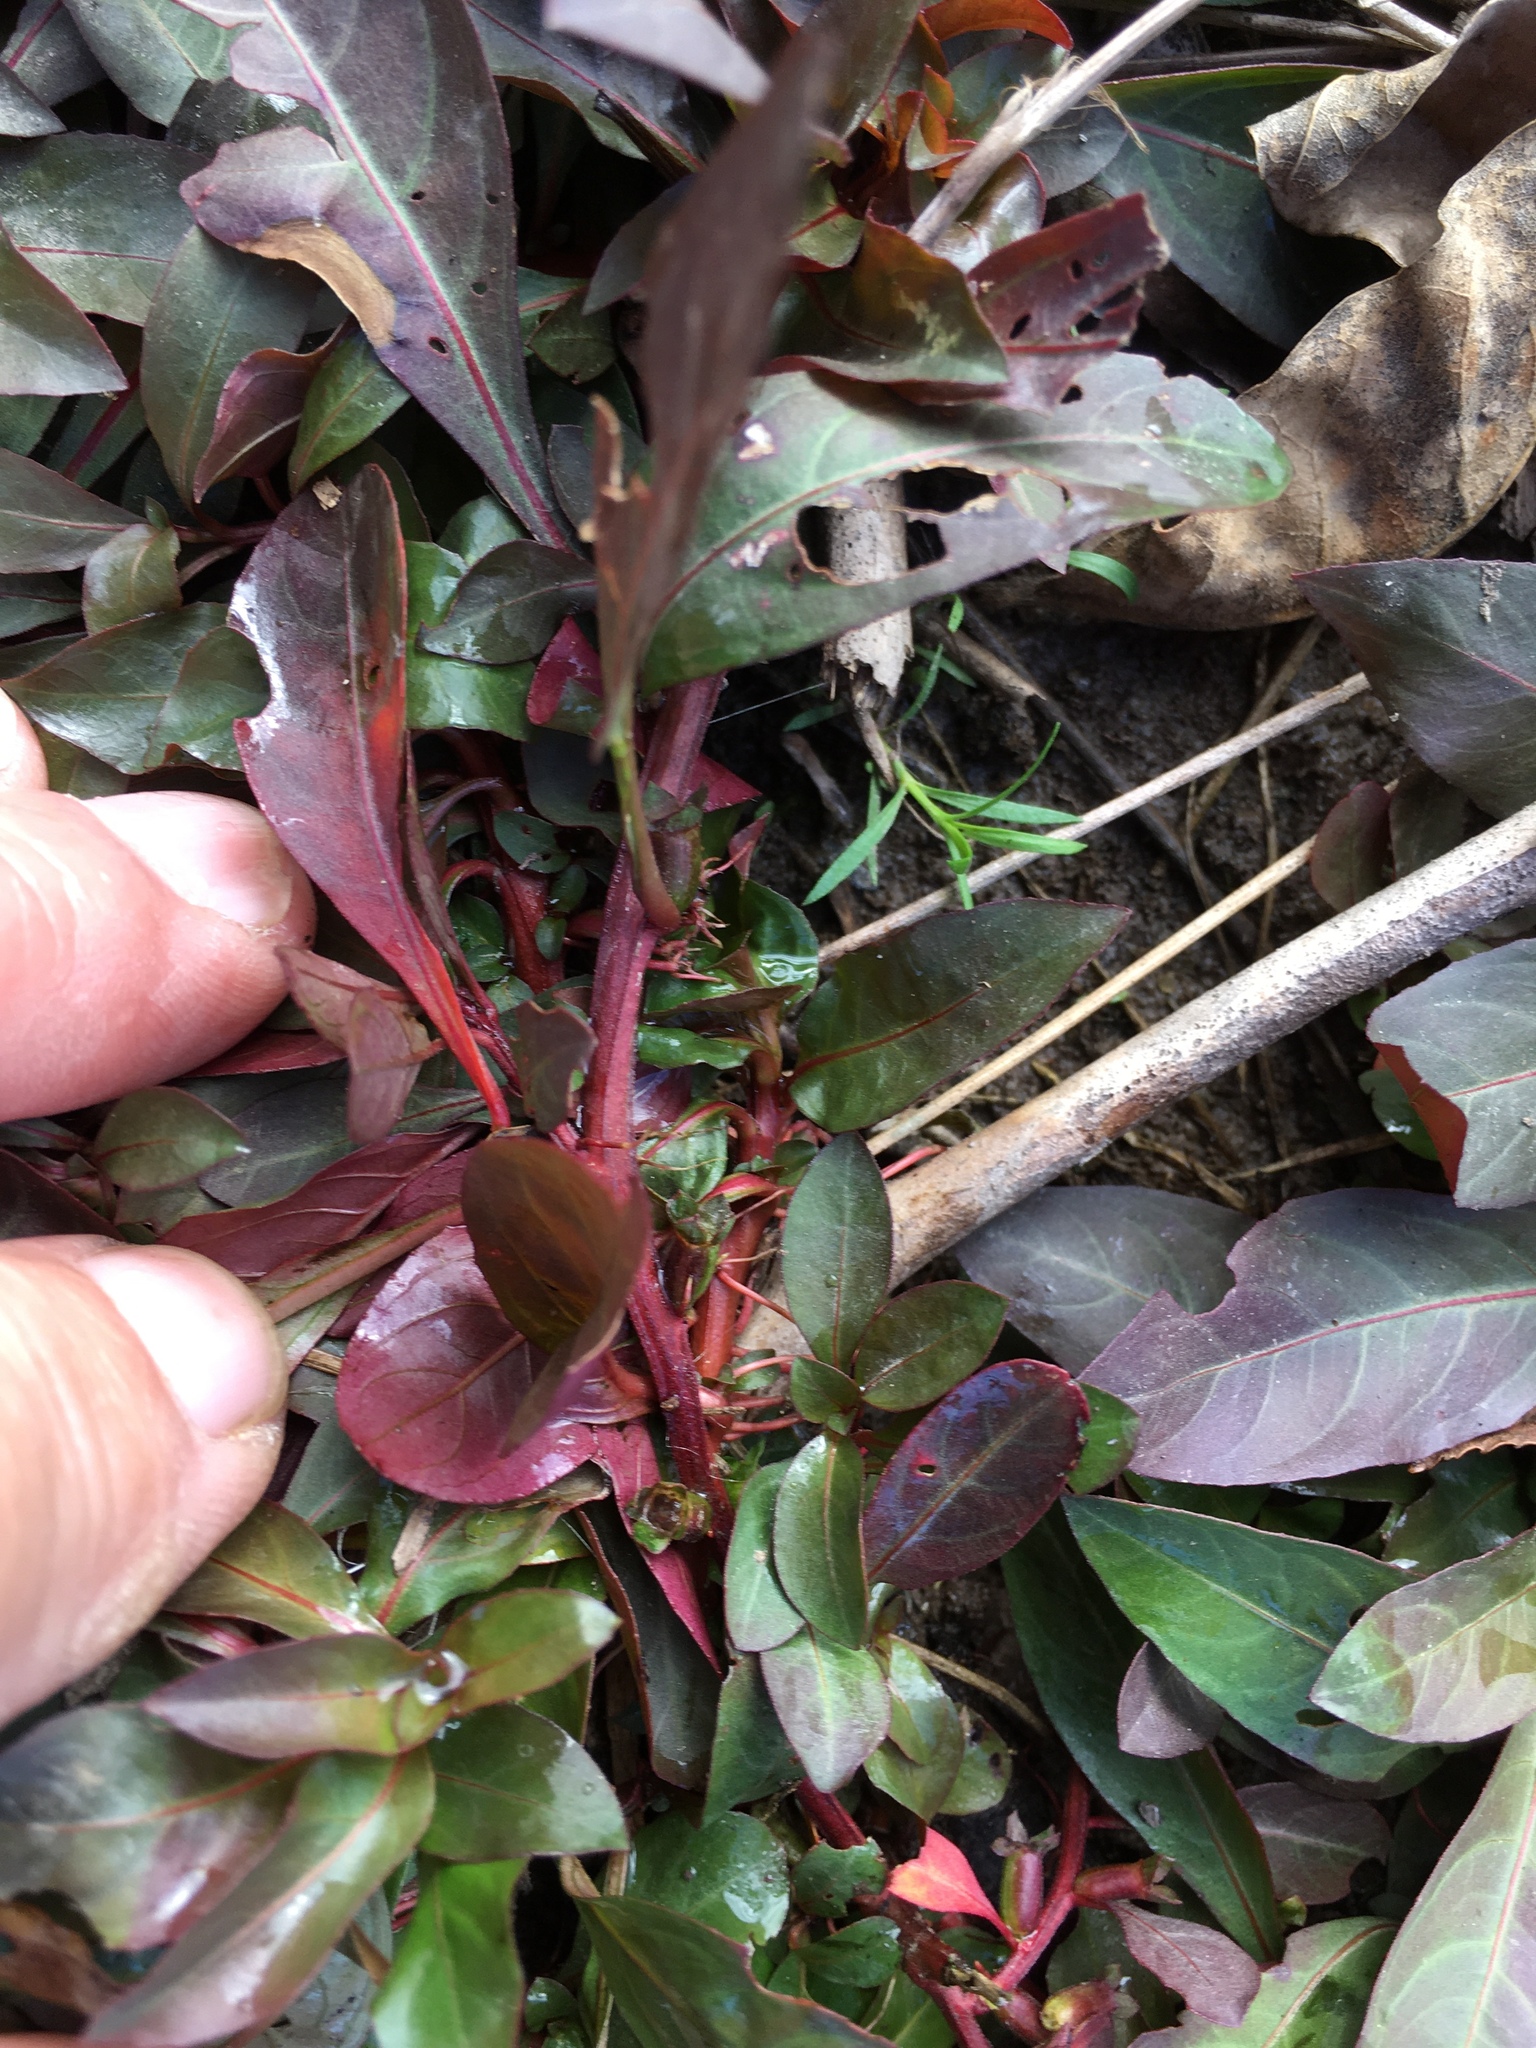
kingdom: Plantae
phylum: Tracheophyta
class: Magnoliopsida
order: Myrtales
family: Onagraceae
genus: Ludwigia
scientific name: Ludwigia palustris
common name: Hampshire-purslane
